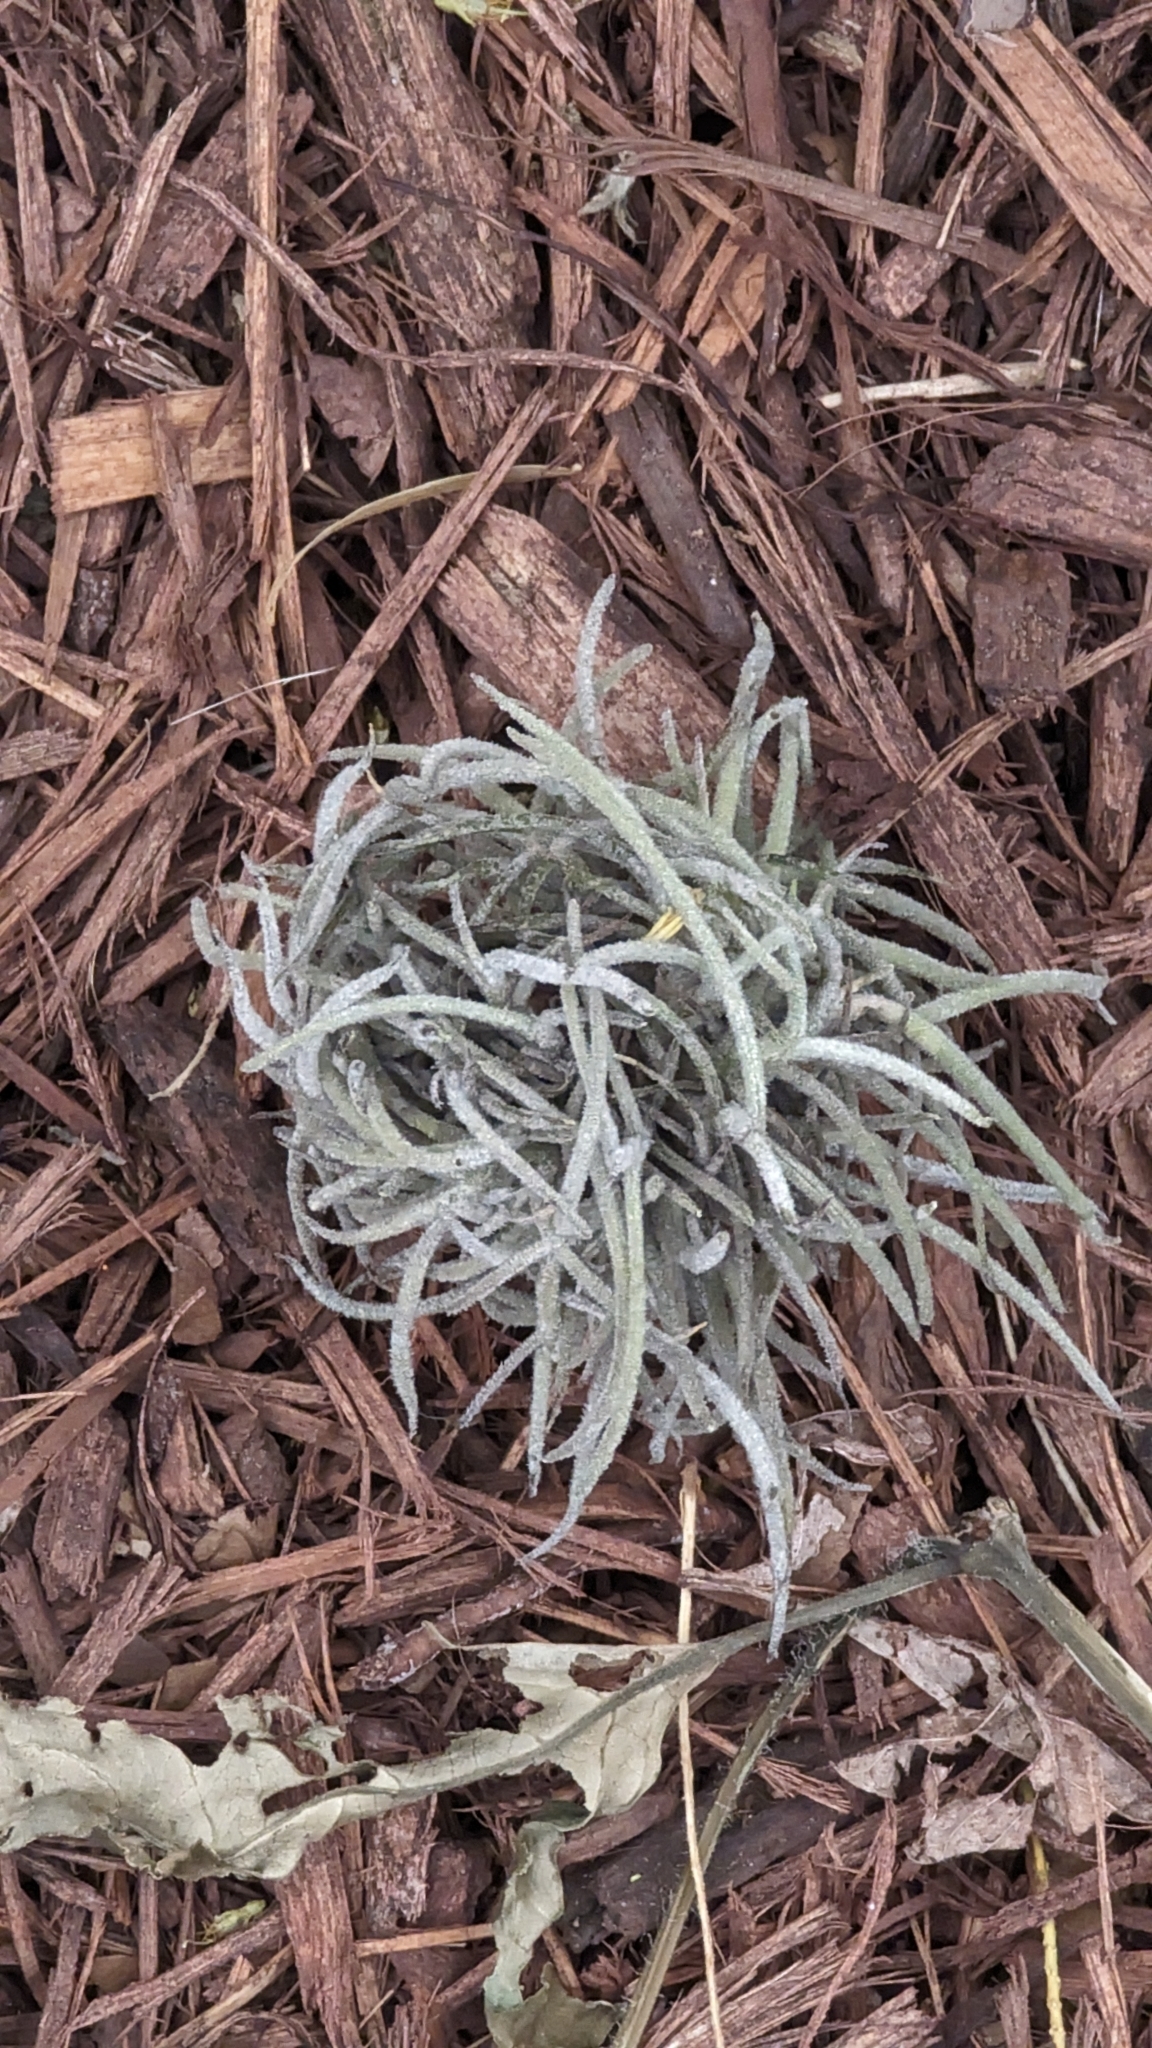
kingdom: Plantae
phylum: Tracheophyta
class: Liliopsida
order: Poales
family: Bromeliaceae
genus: Tillandsia
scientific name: Tillandsia recurvata
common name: Small ballmoss
